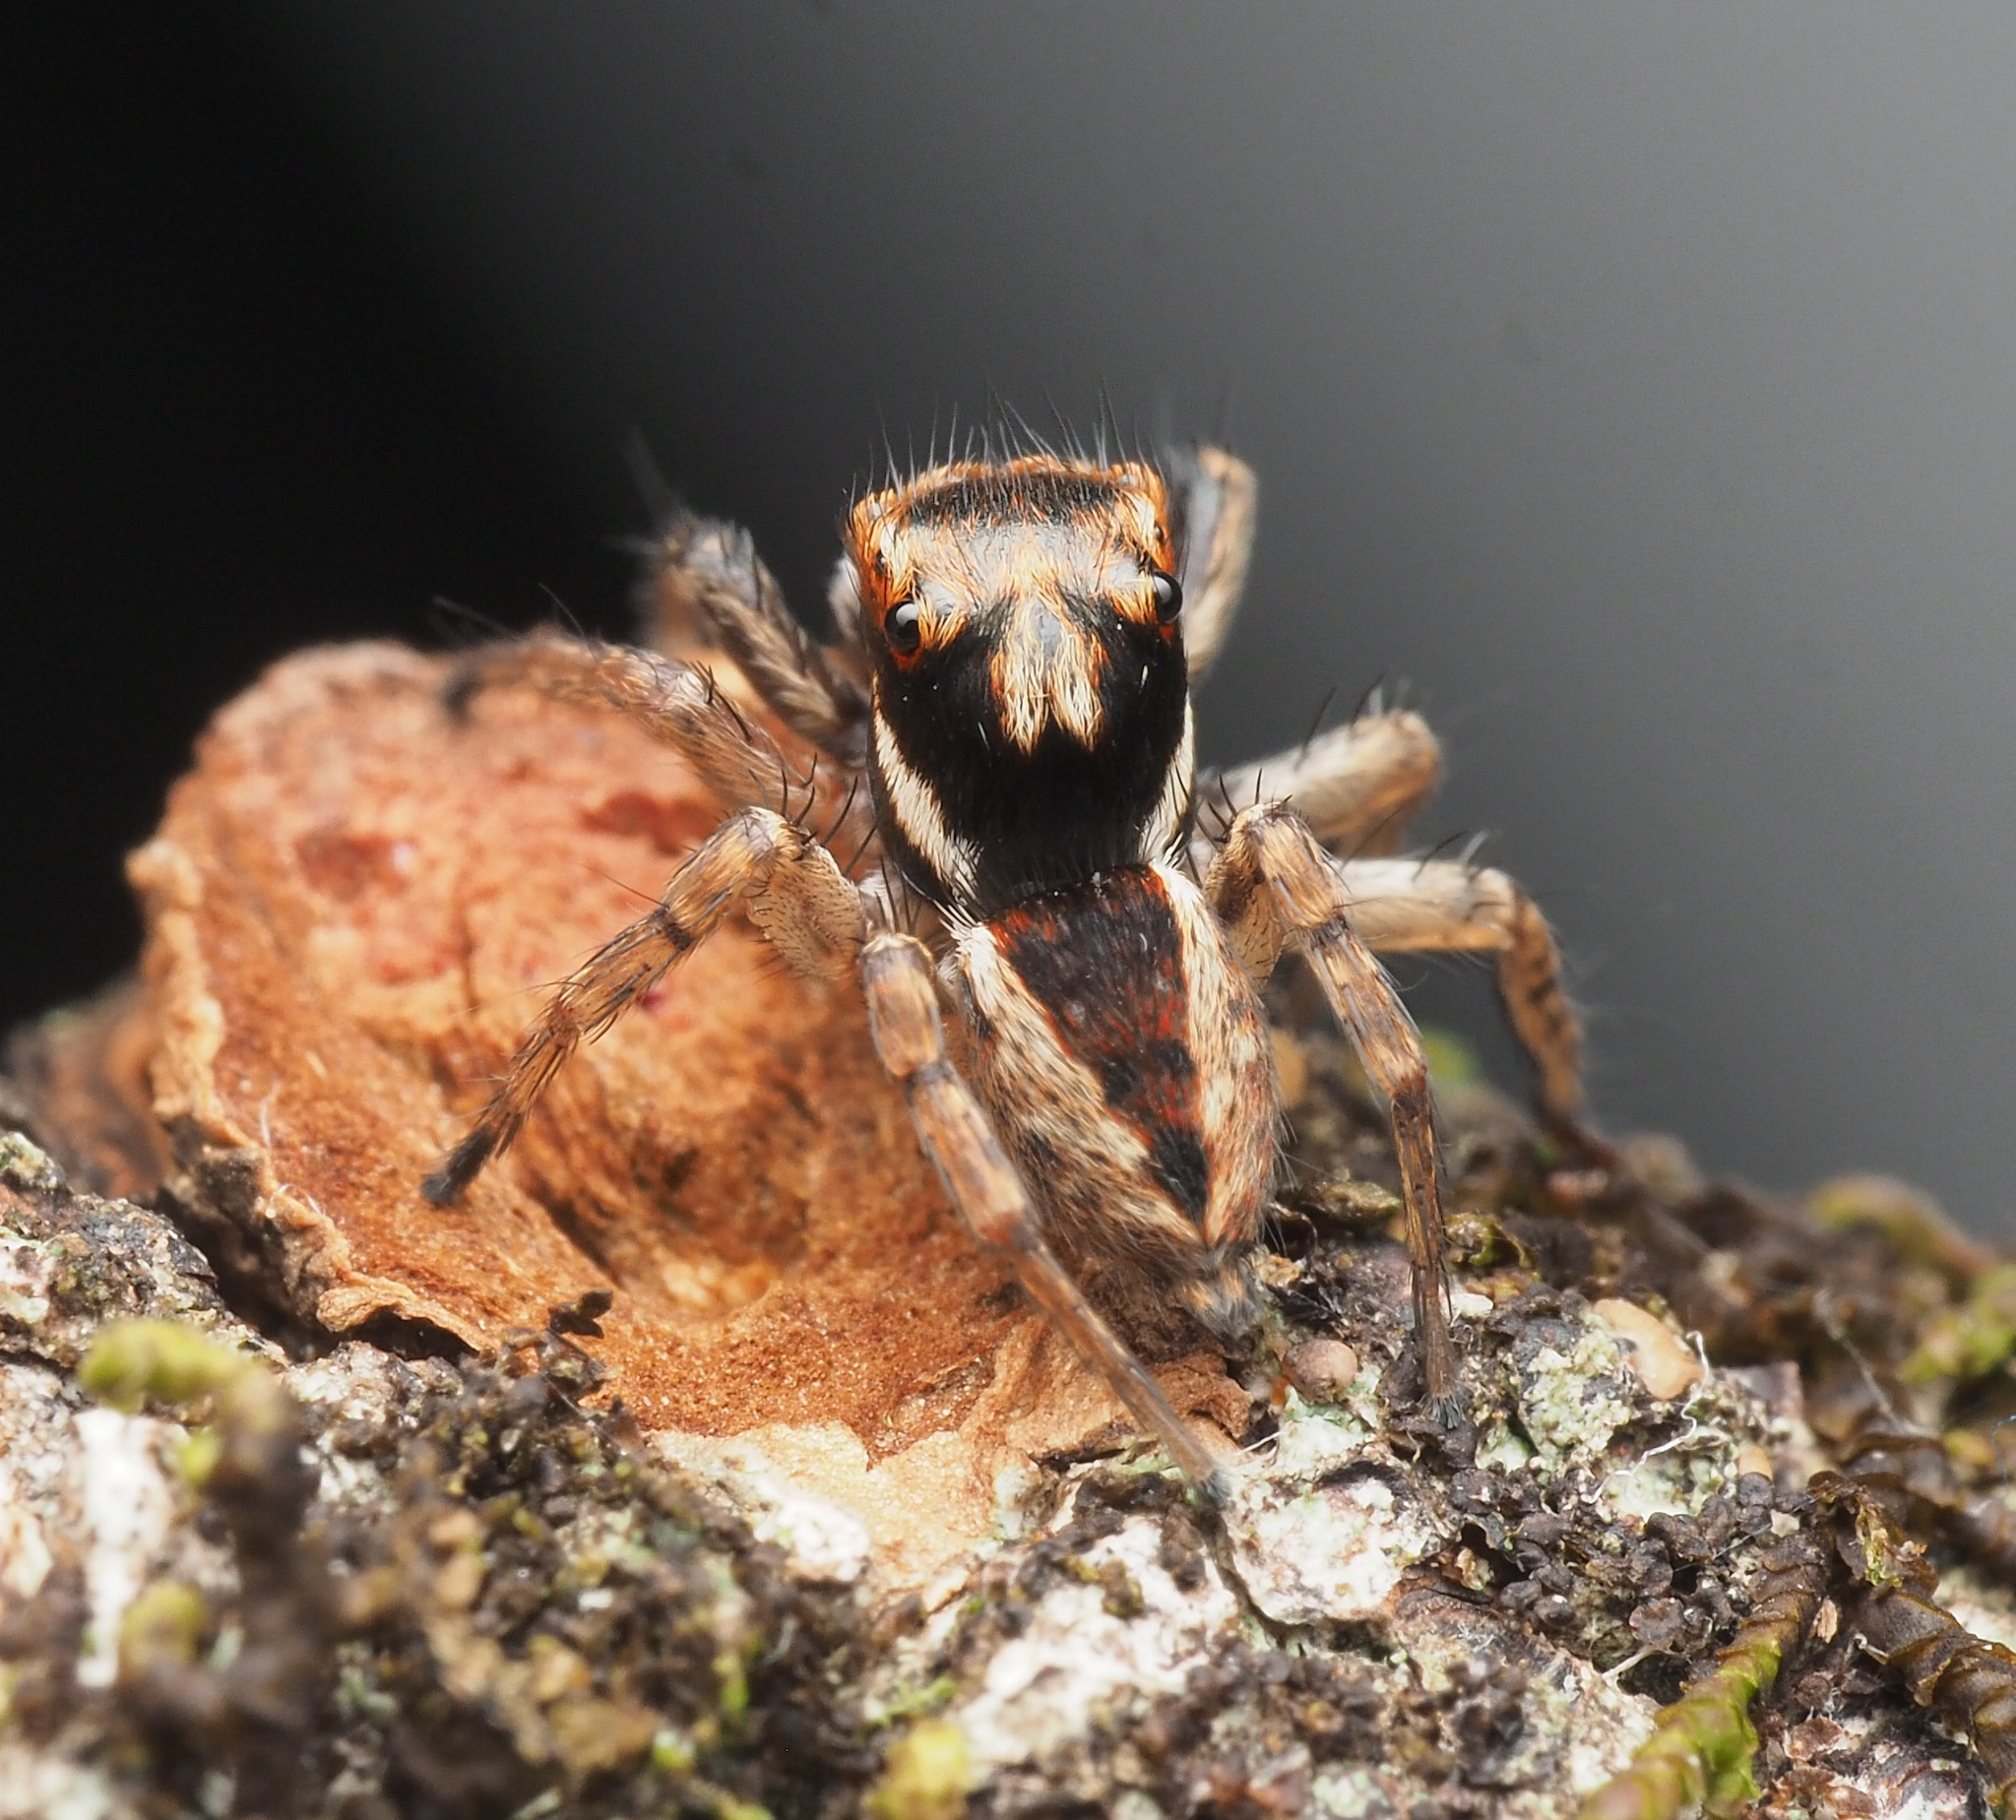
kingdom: Animalia
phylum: Arthropoda
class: Arachnida
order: Araneae
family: Salticidae
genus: Jotus
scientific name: Jotus
